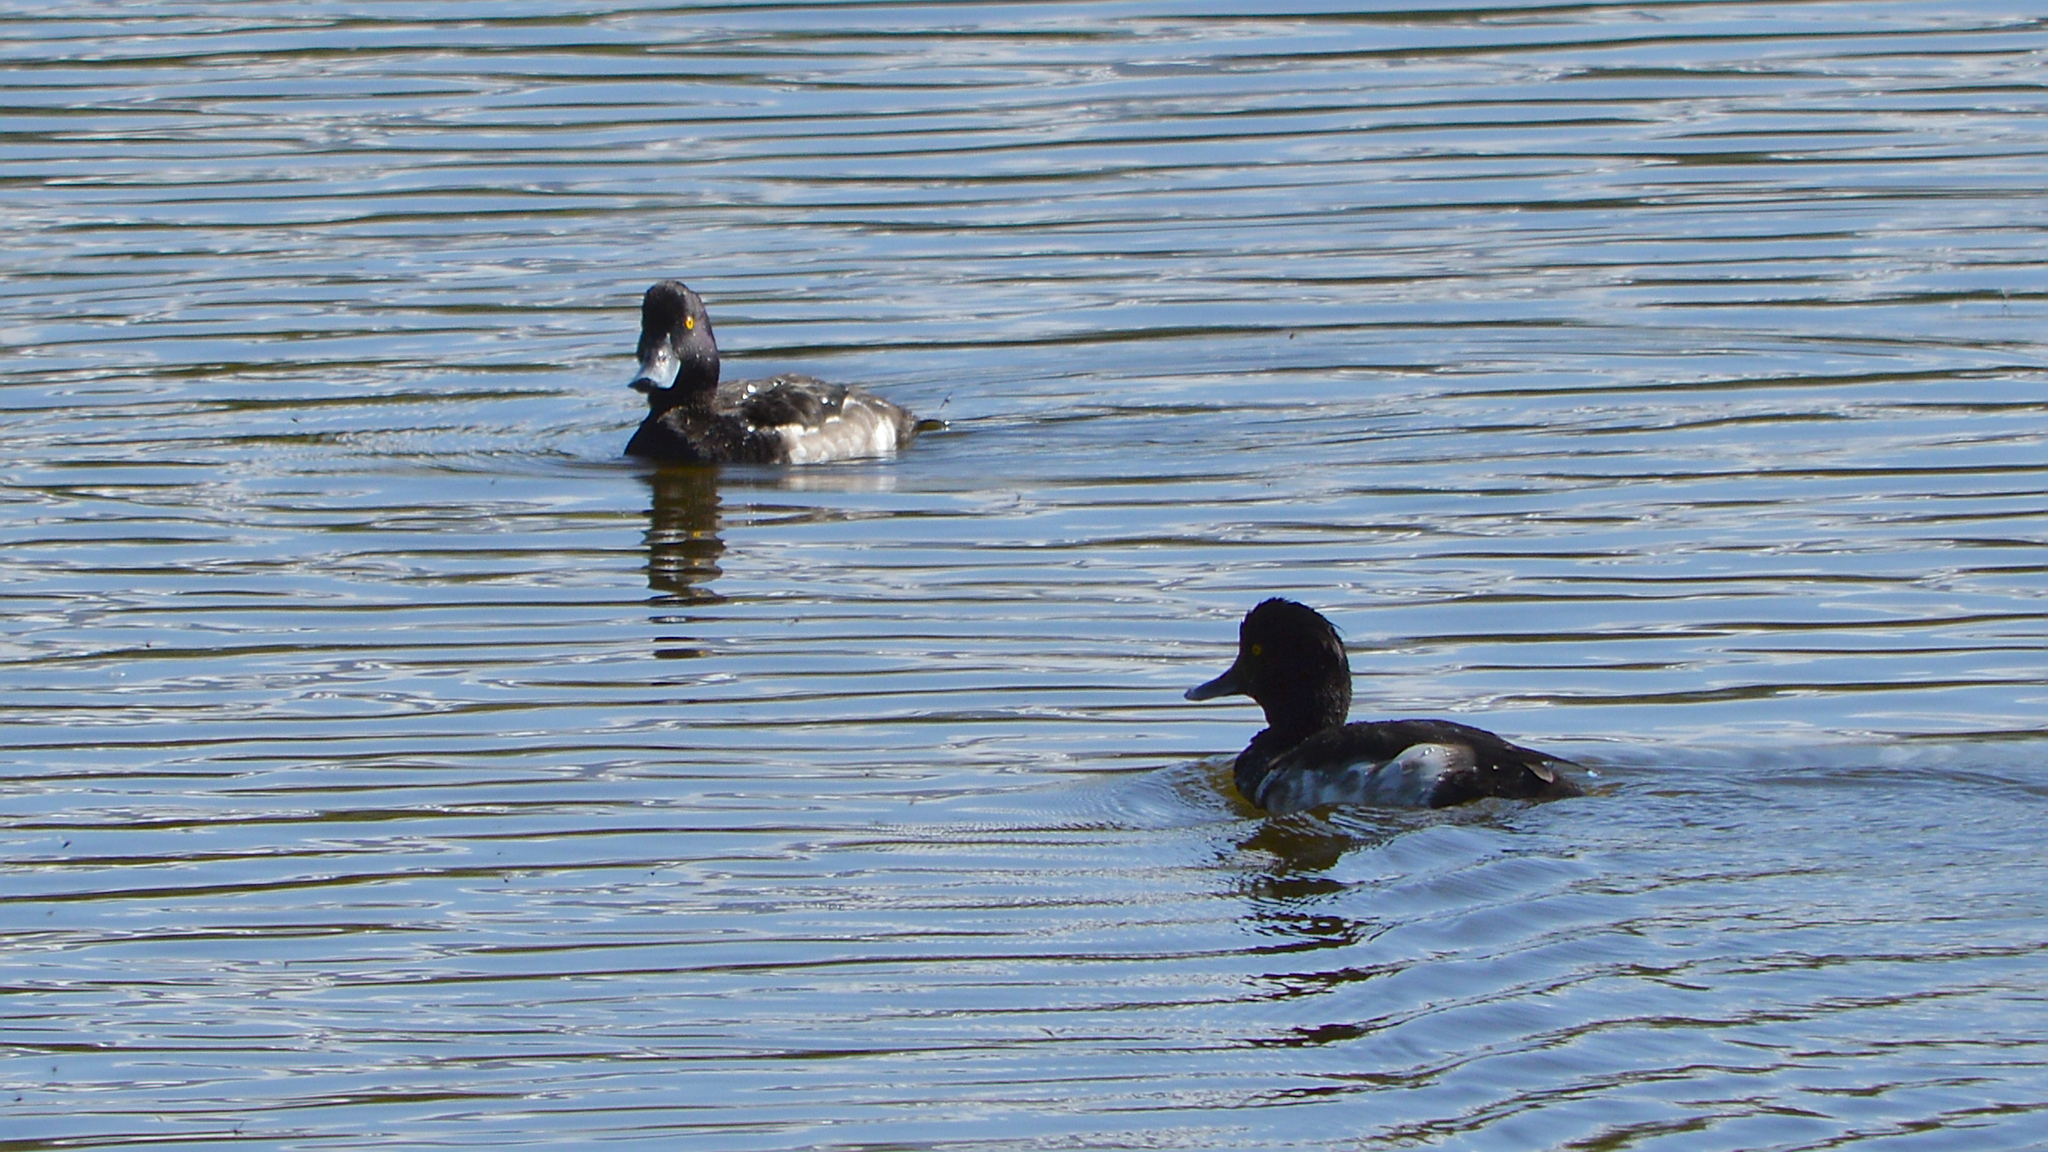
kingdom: Animalia
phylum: Chordata
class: Aves
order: Anseriformes
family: Anatidae
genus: Aythya
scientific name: Aythya fuligula
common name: Tufted duck
